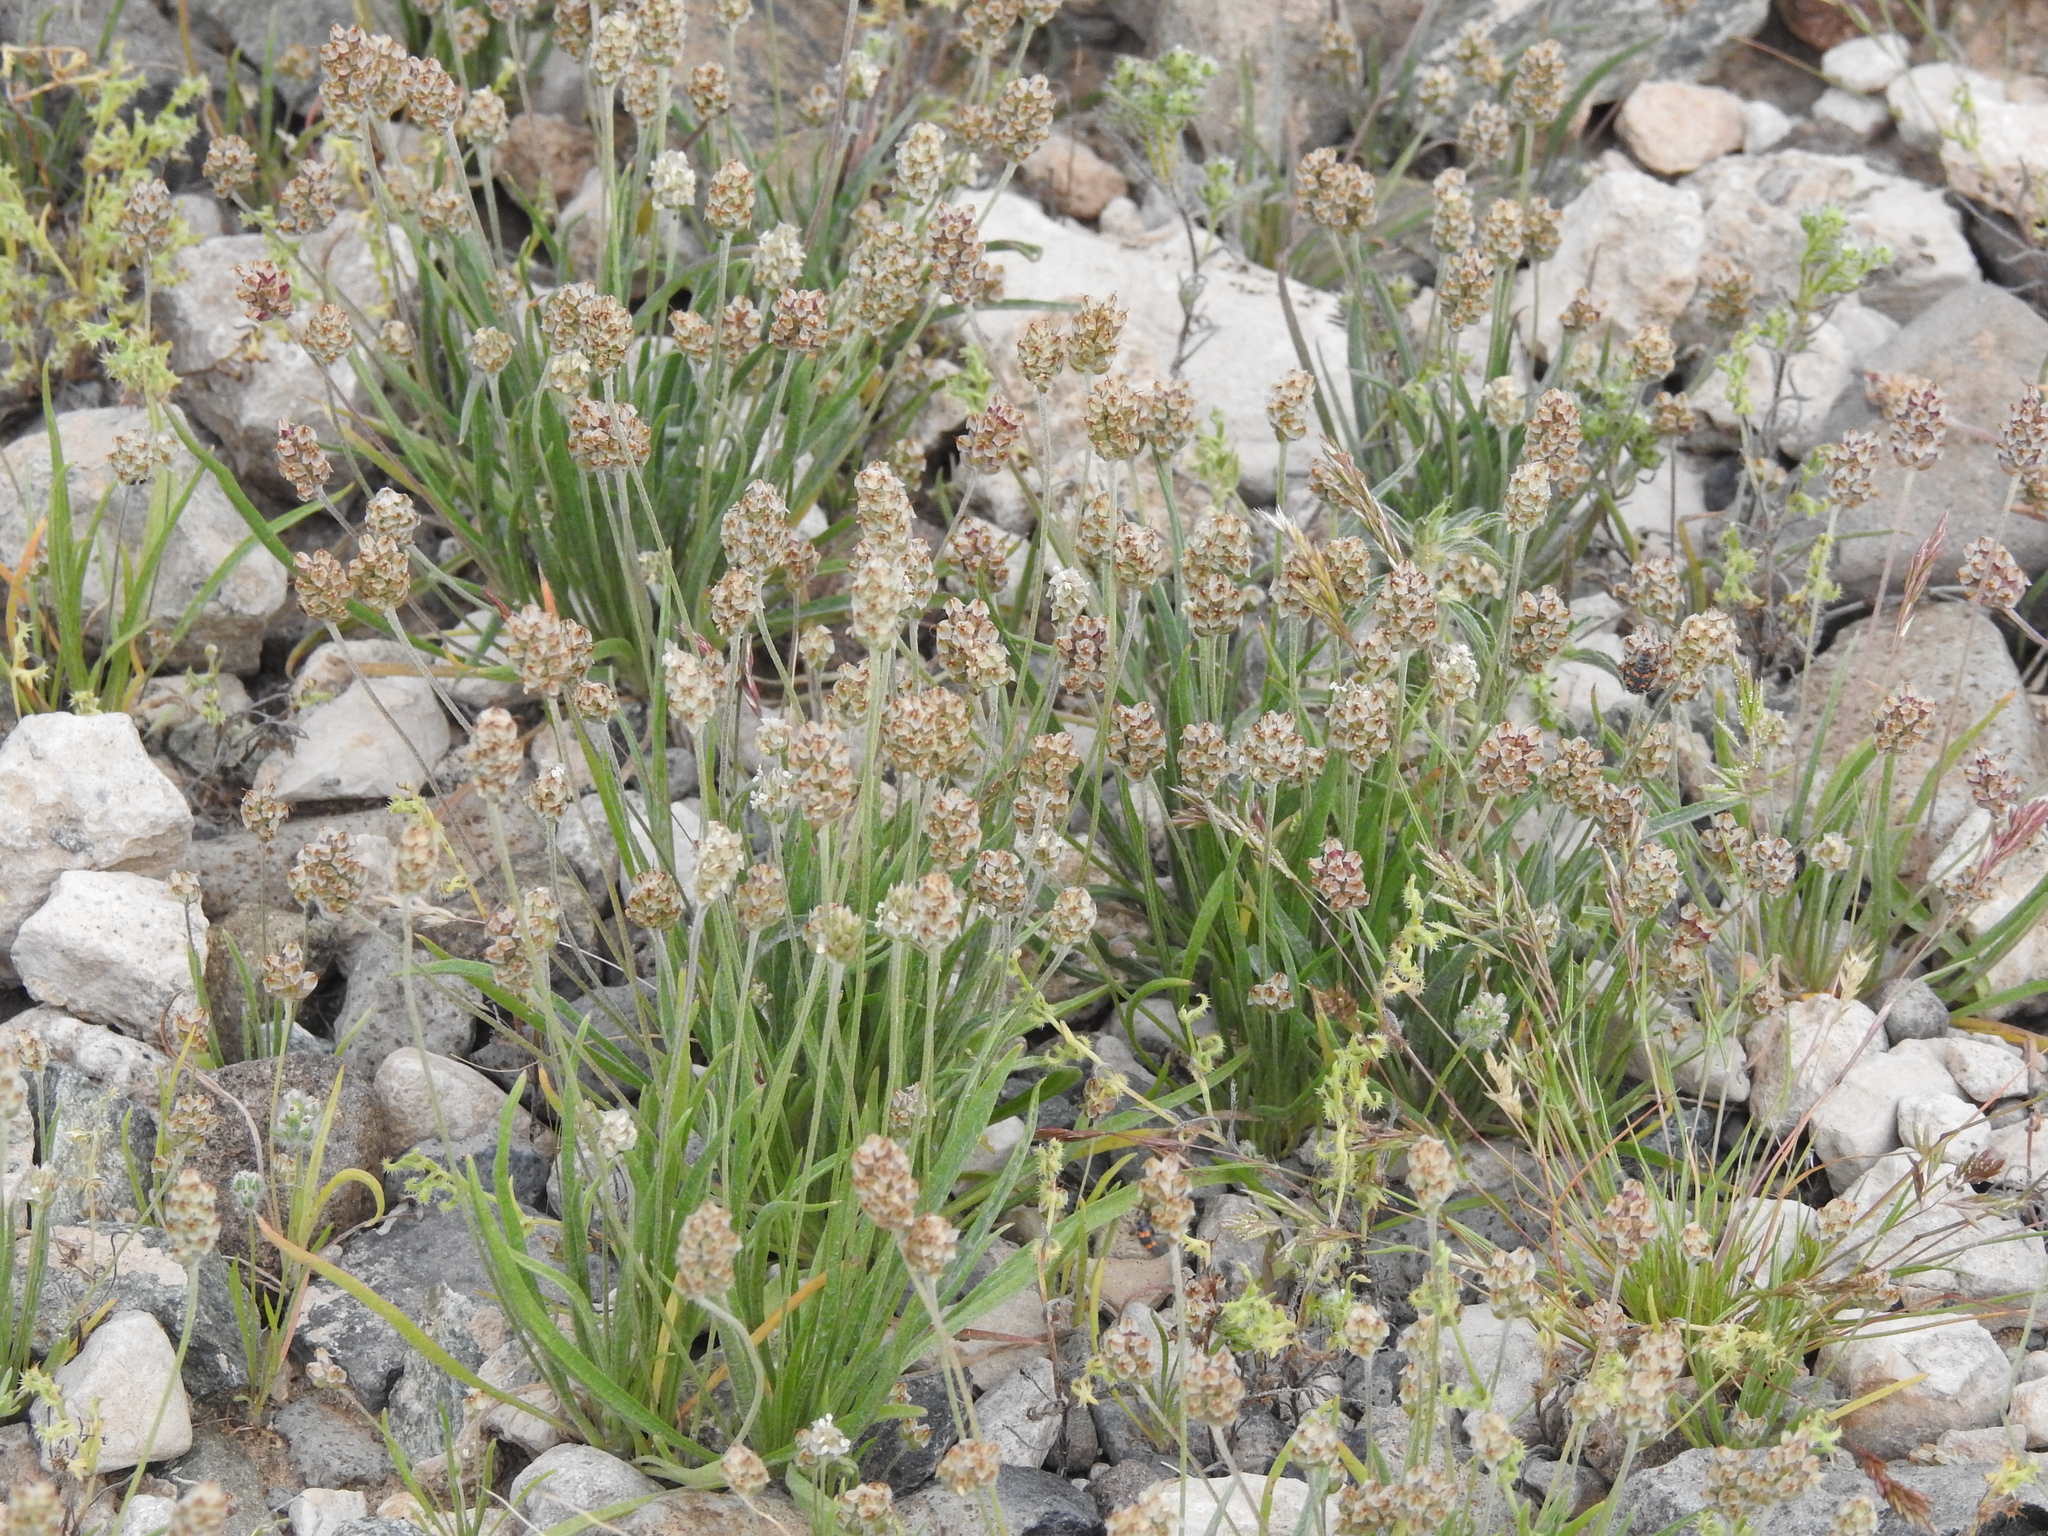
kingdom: Plantae
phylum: Tracheophyta
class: Magnoliopsida
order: Lamiales
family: Plantaginaceae
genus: Plantago
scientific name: Plantago ovata
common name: Blond plantain
